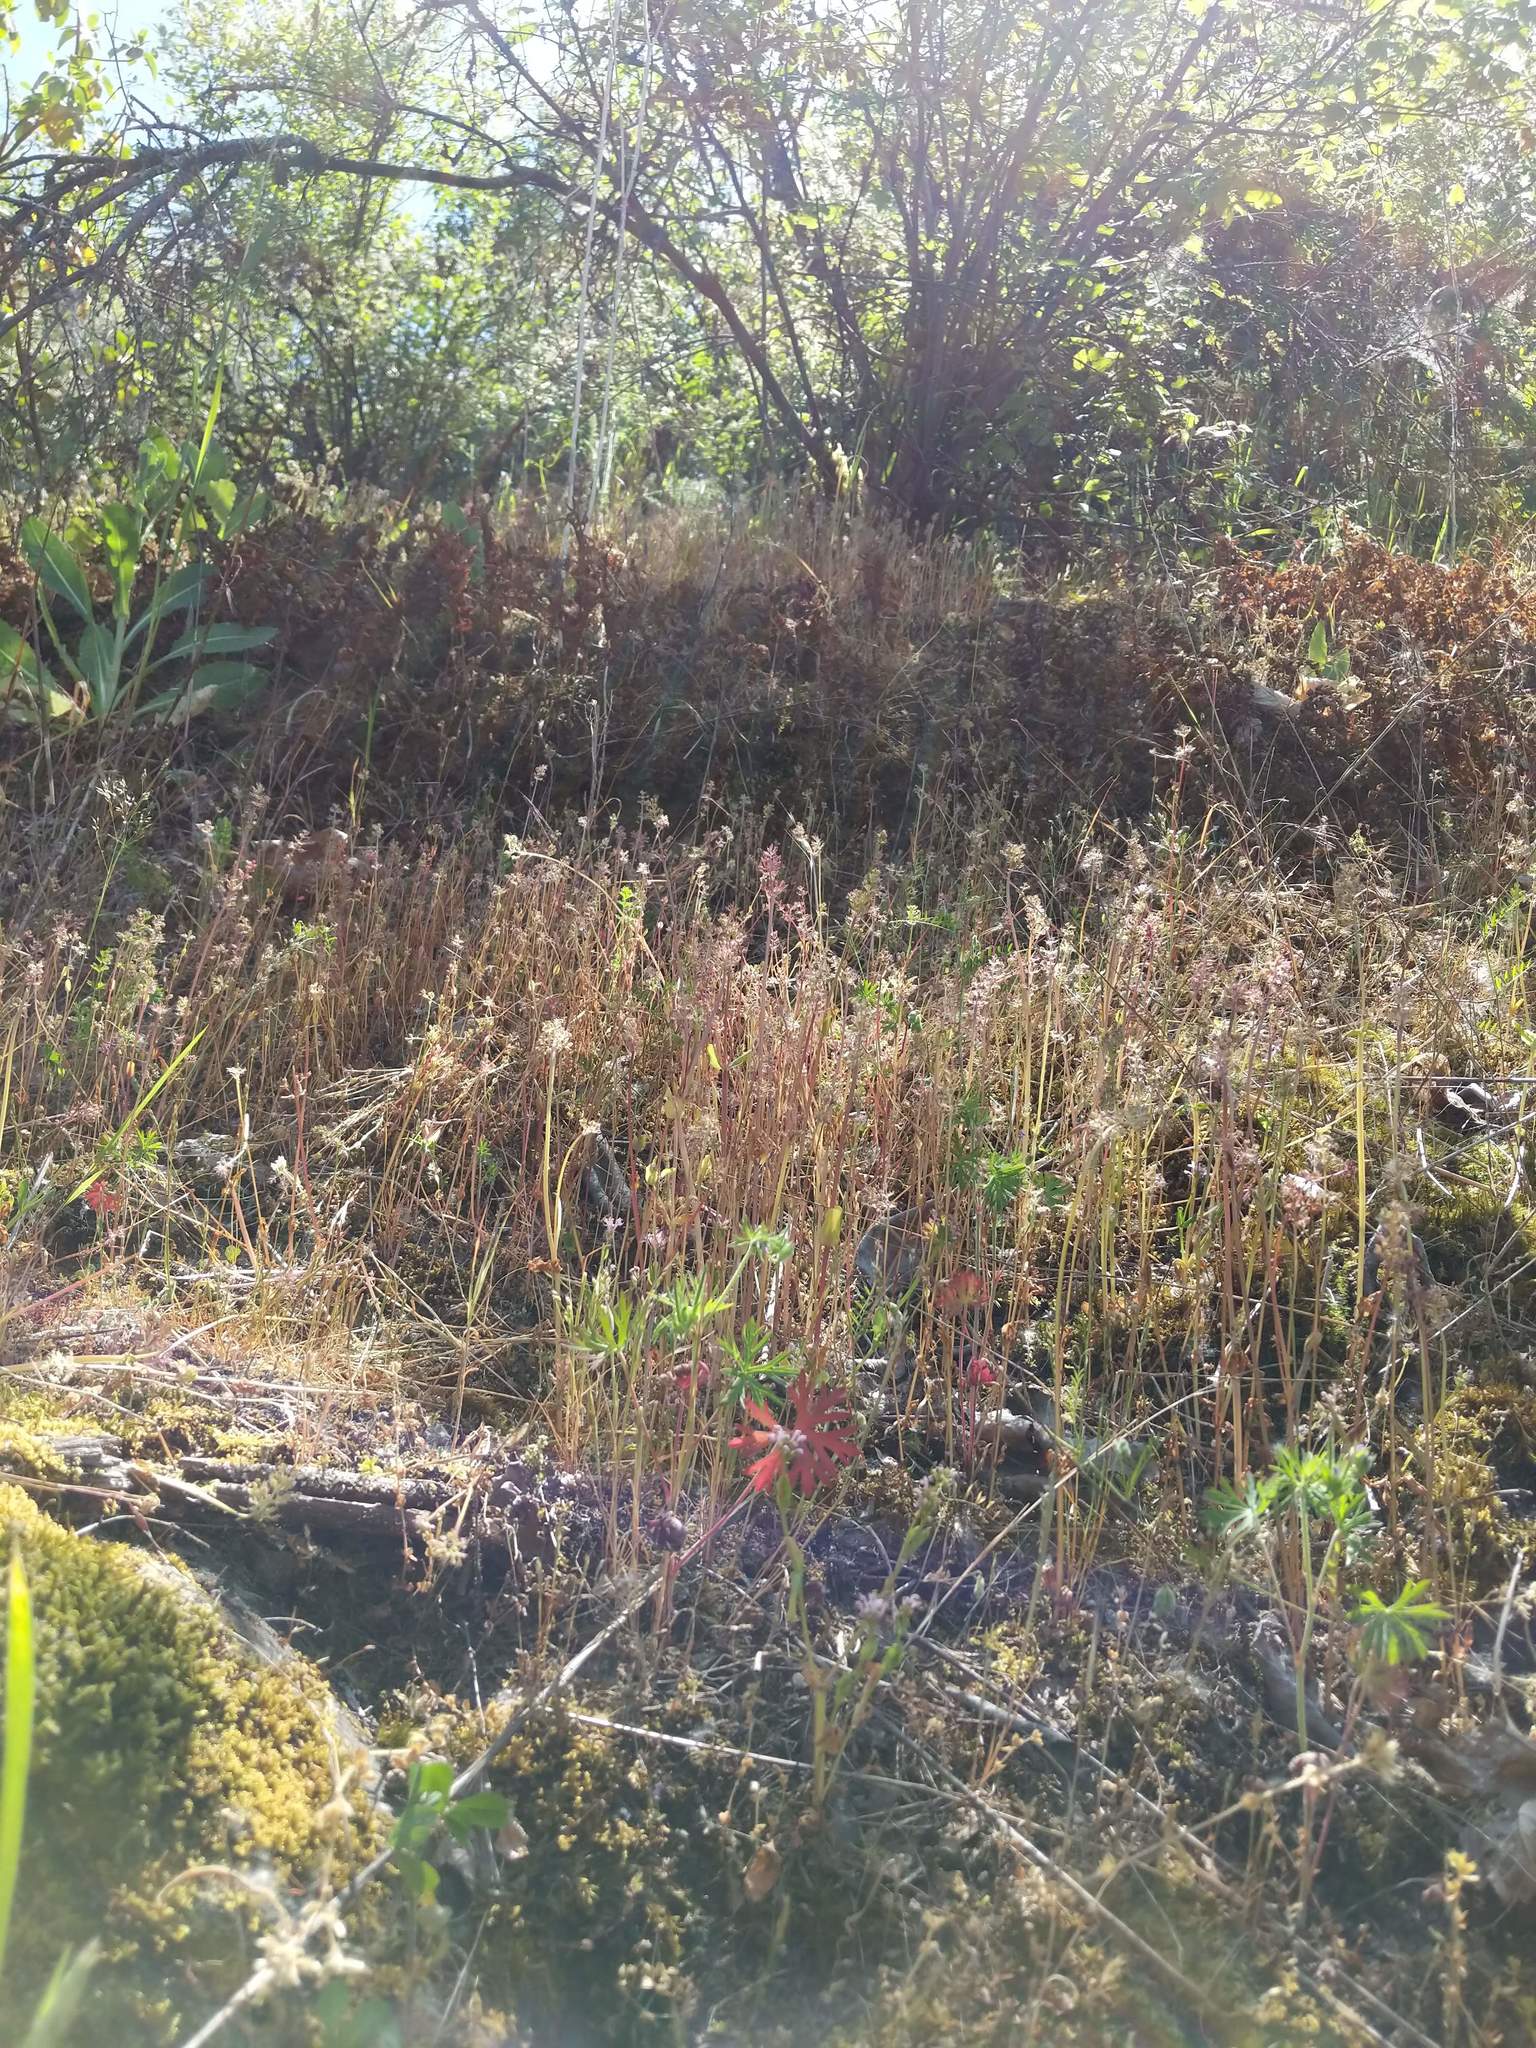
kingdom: Plantae
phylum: Tracheophyta
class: Magnoliopsida
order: Dipsacales
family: Caprifoliaceae
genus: Plectritis
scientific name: Plectritis congesta
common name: Pink plectritis
